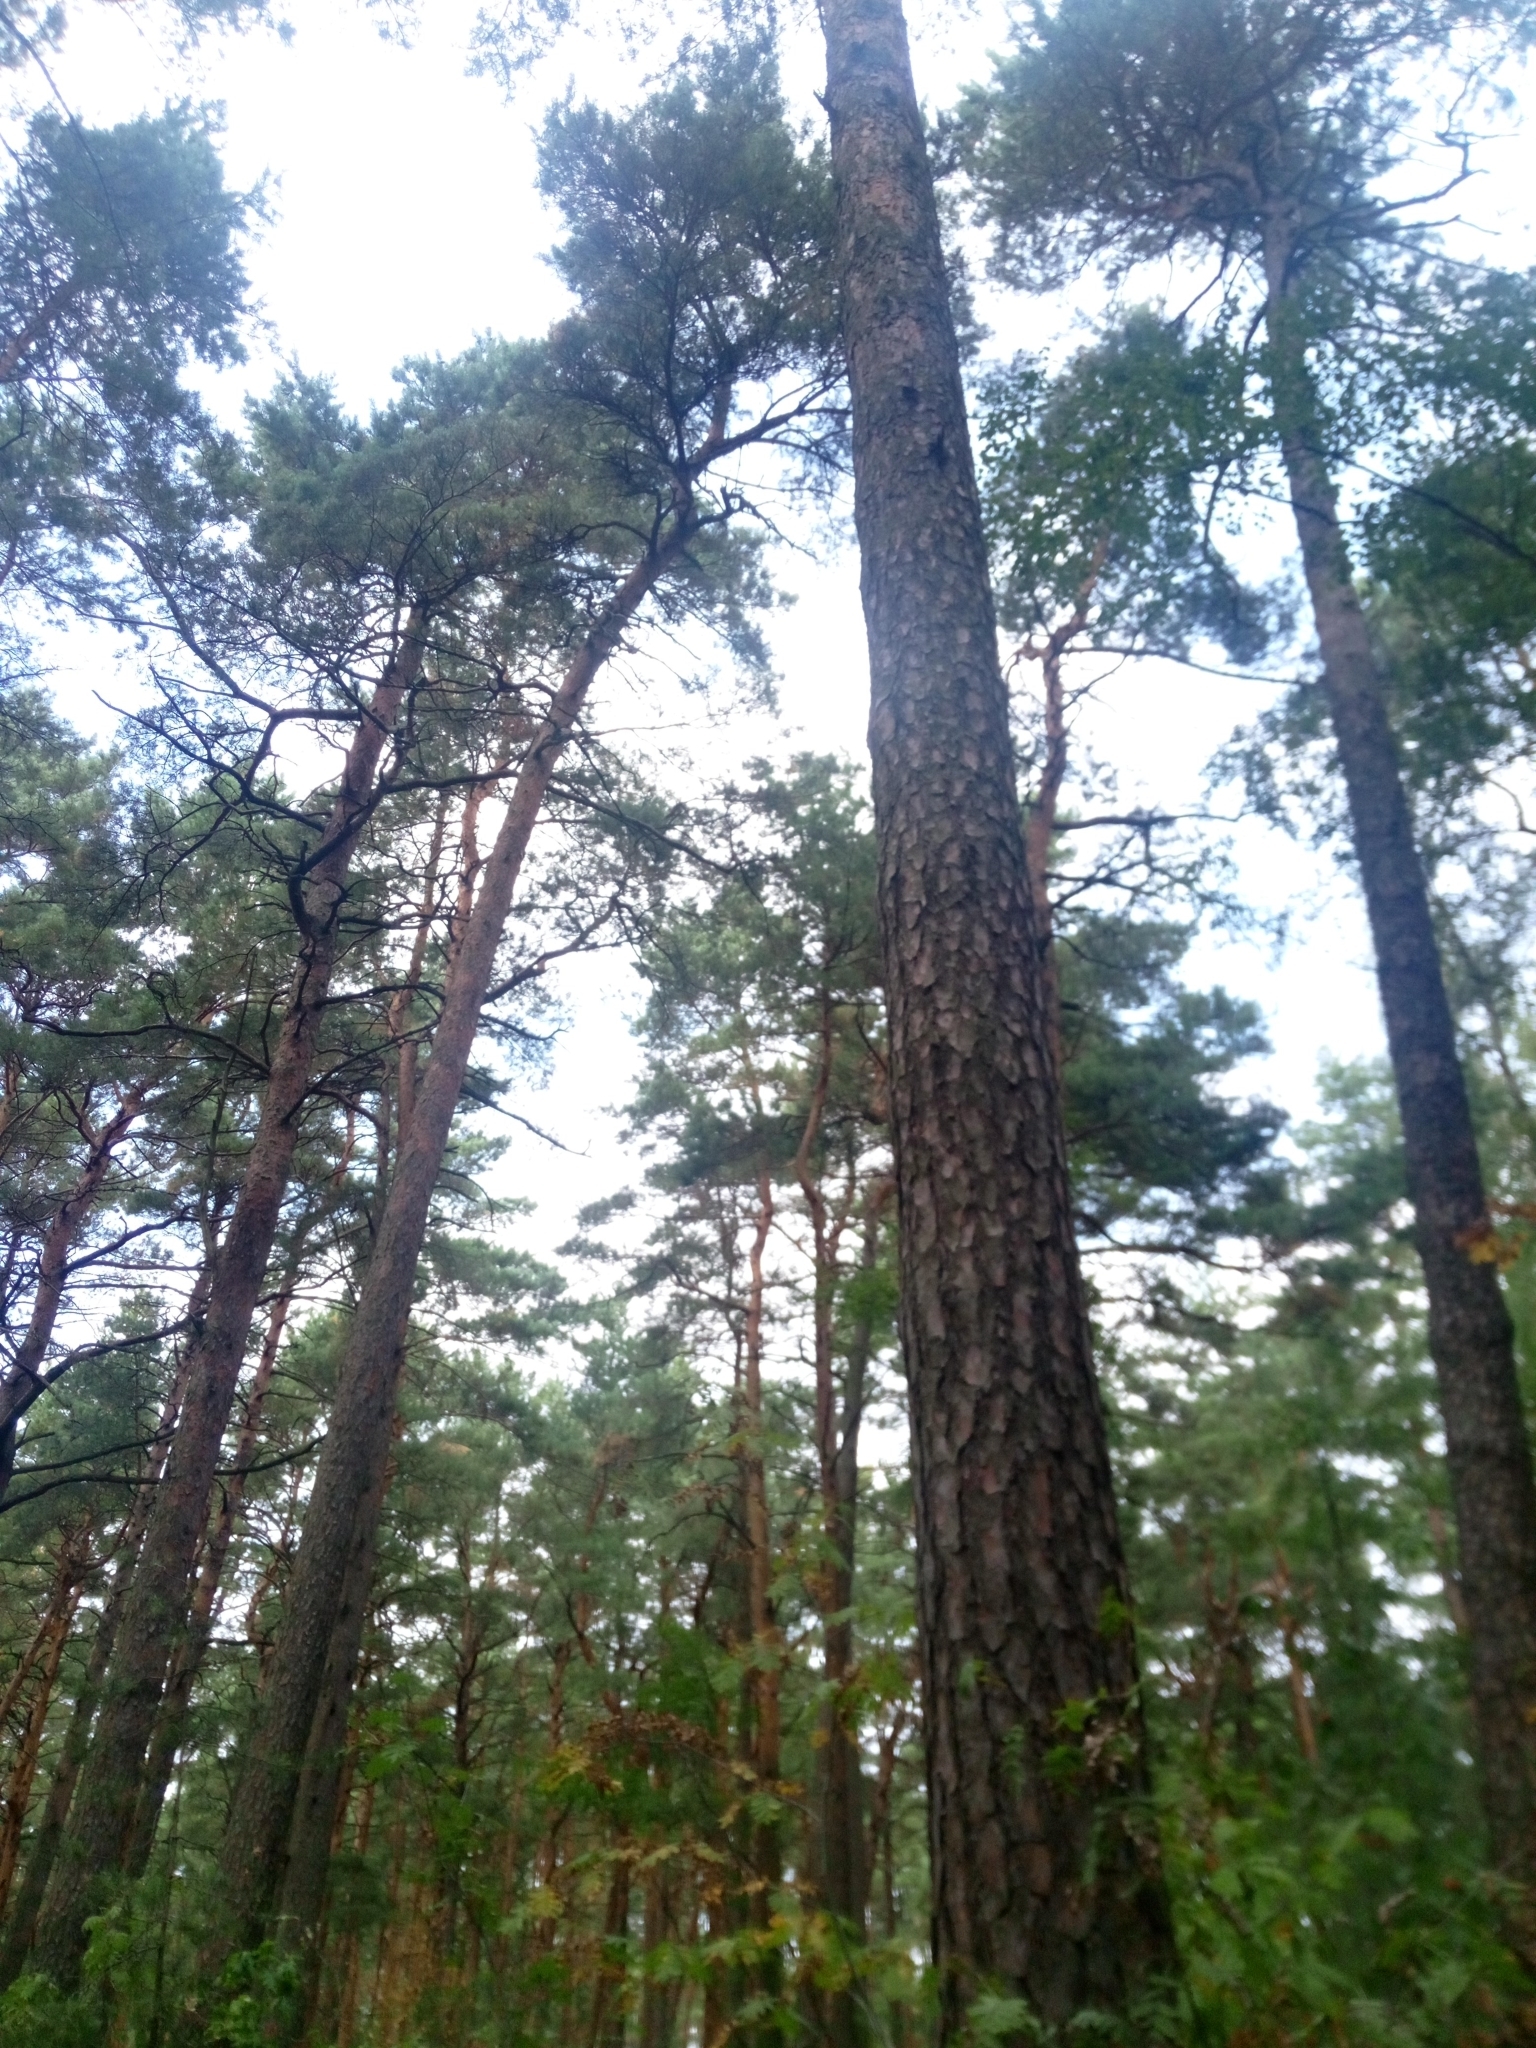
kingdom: Plantae
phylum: Tracheophyta
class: Pinopsida
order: Pinales
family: Pinaceae
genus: Pinus
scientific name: Pinus sylvestris
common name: Scots pine
